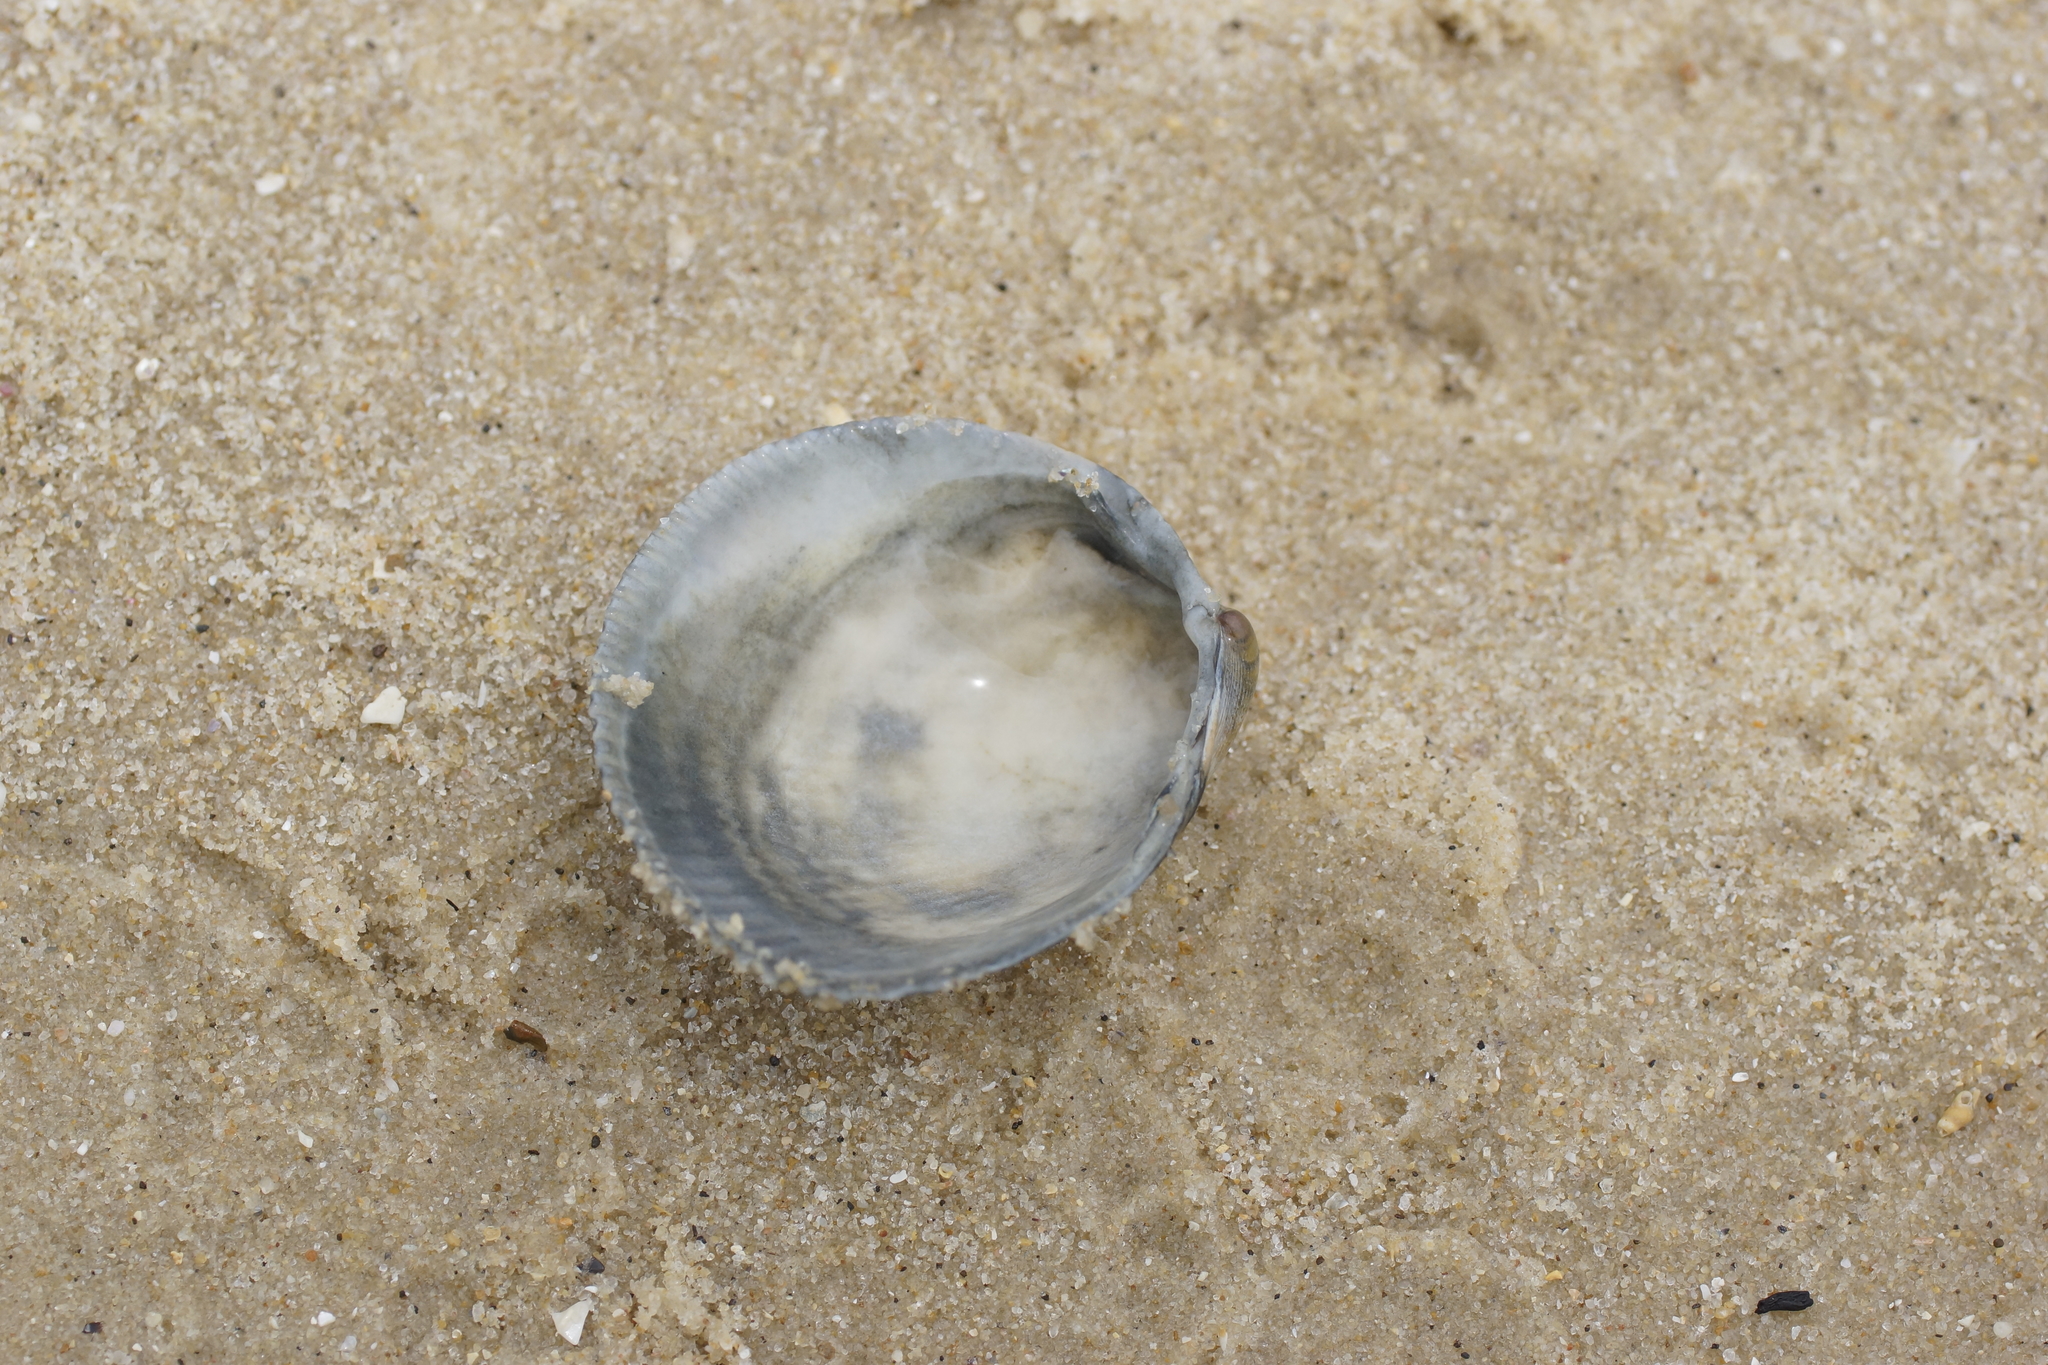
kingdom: Animalia
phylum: Mollusca
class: Bivalvia
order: Cardiida
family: Cardiidae
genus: Fulvia
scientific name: Fulvia tenuicostata
